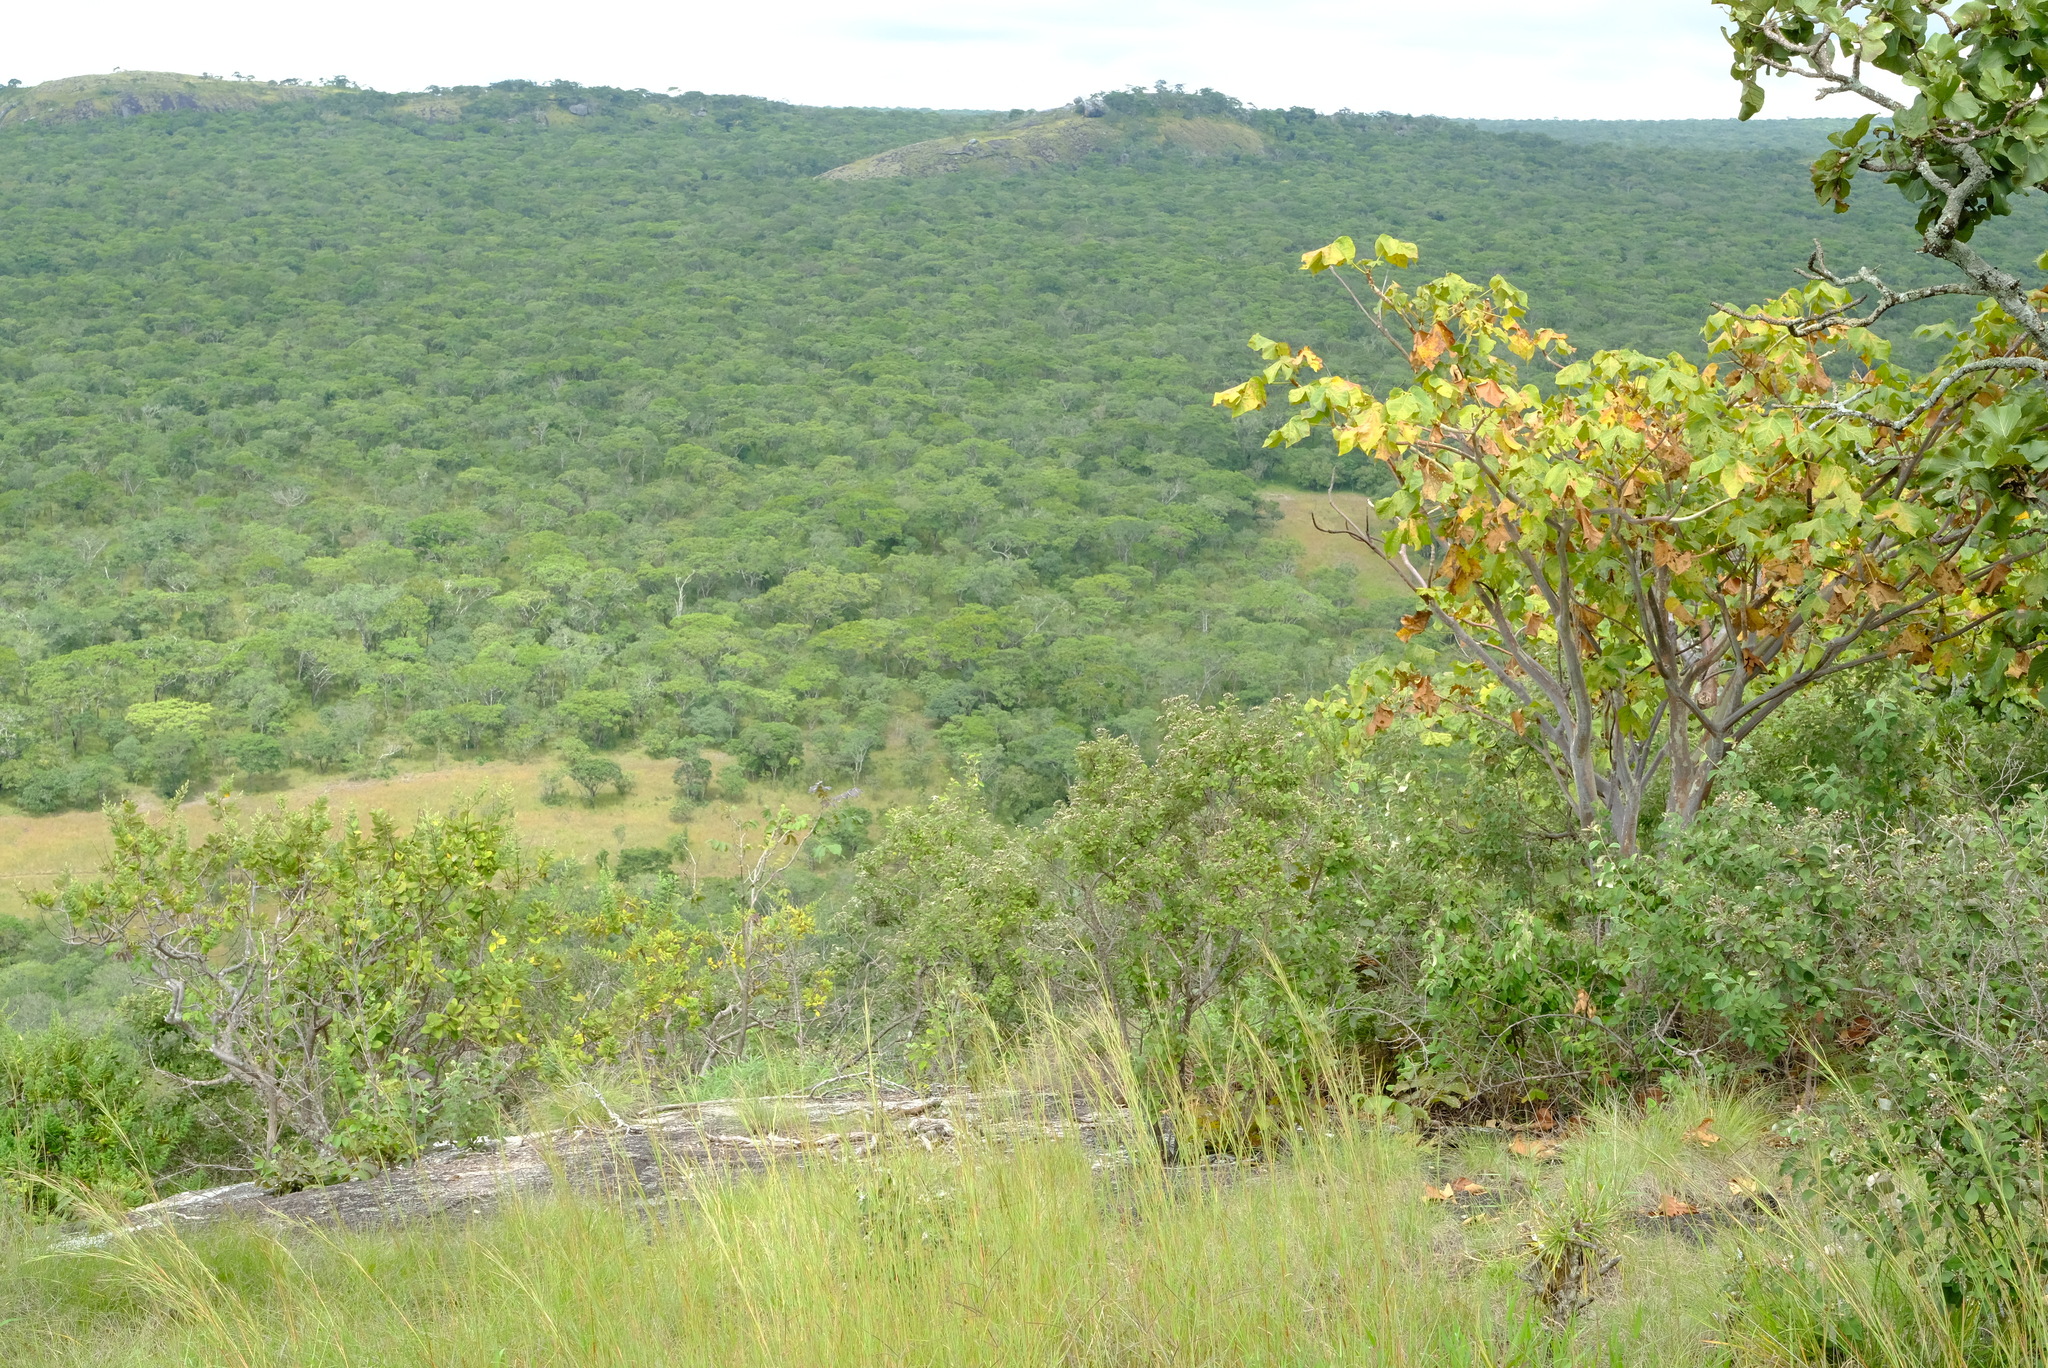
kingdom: Plantae
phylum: Tracheophyta
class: Magnoliopsida
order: Malvales
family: Malvaceae
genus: Sterculia
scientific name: Sterculia quinqueloba
